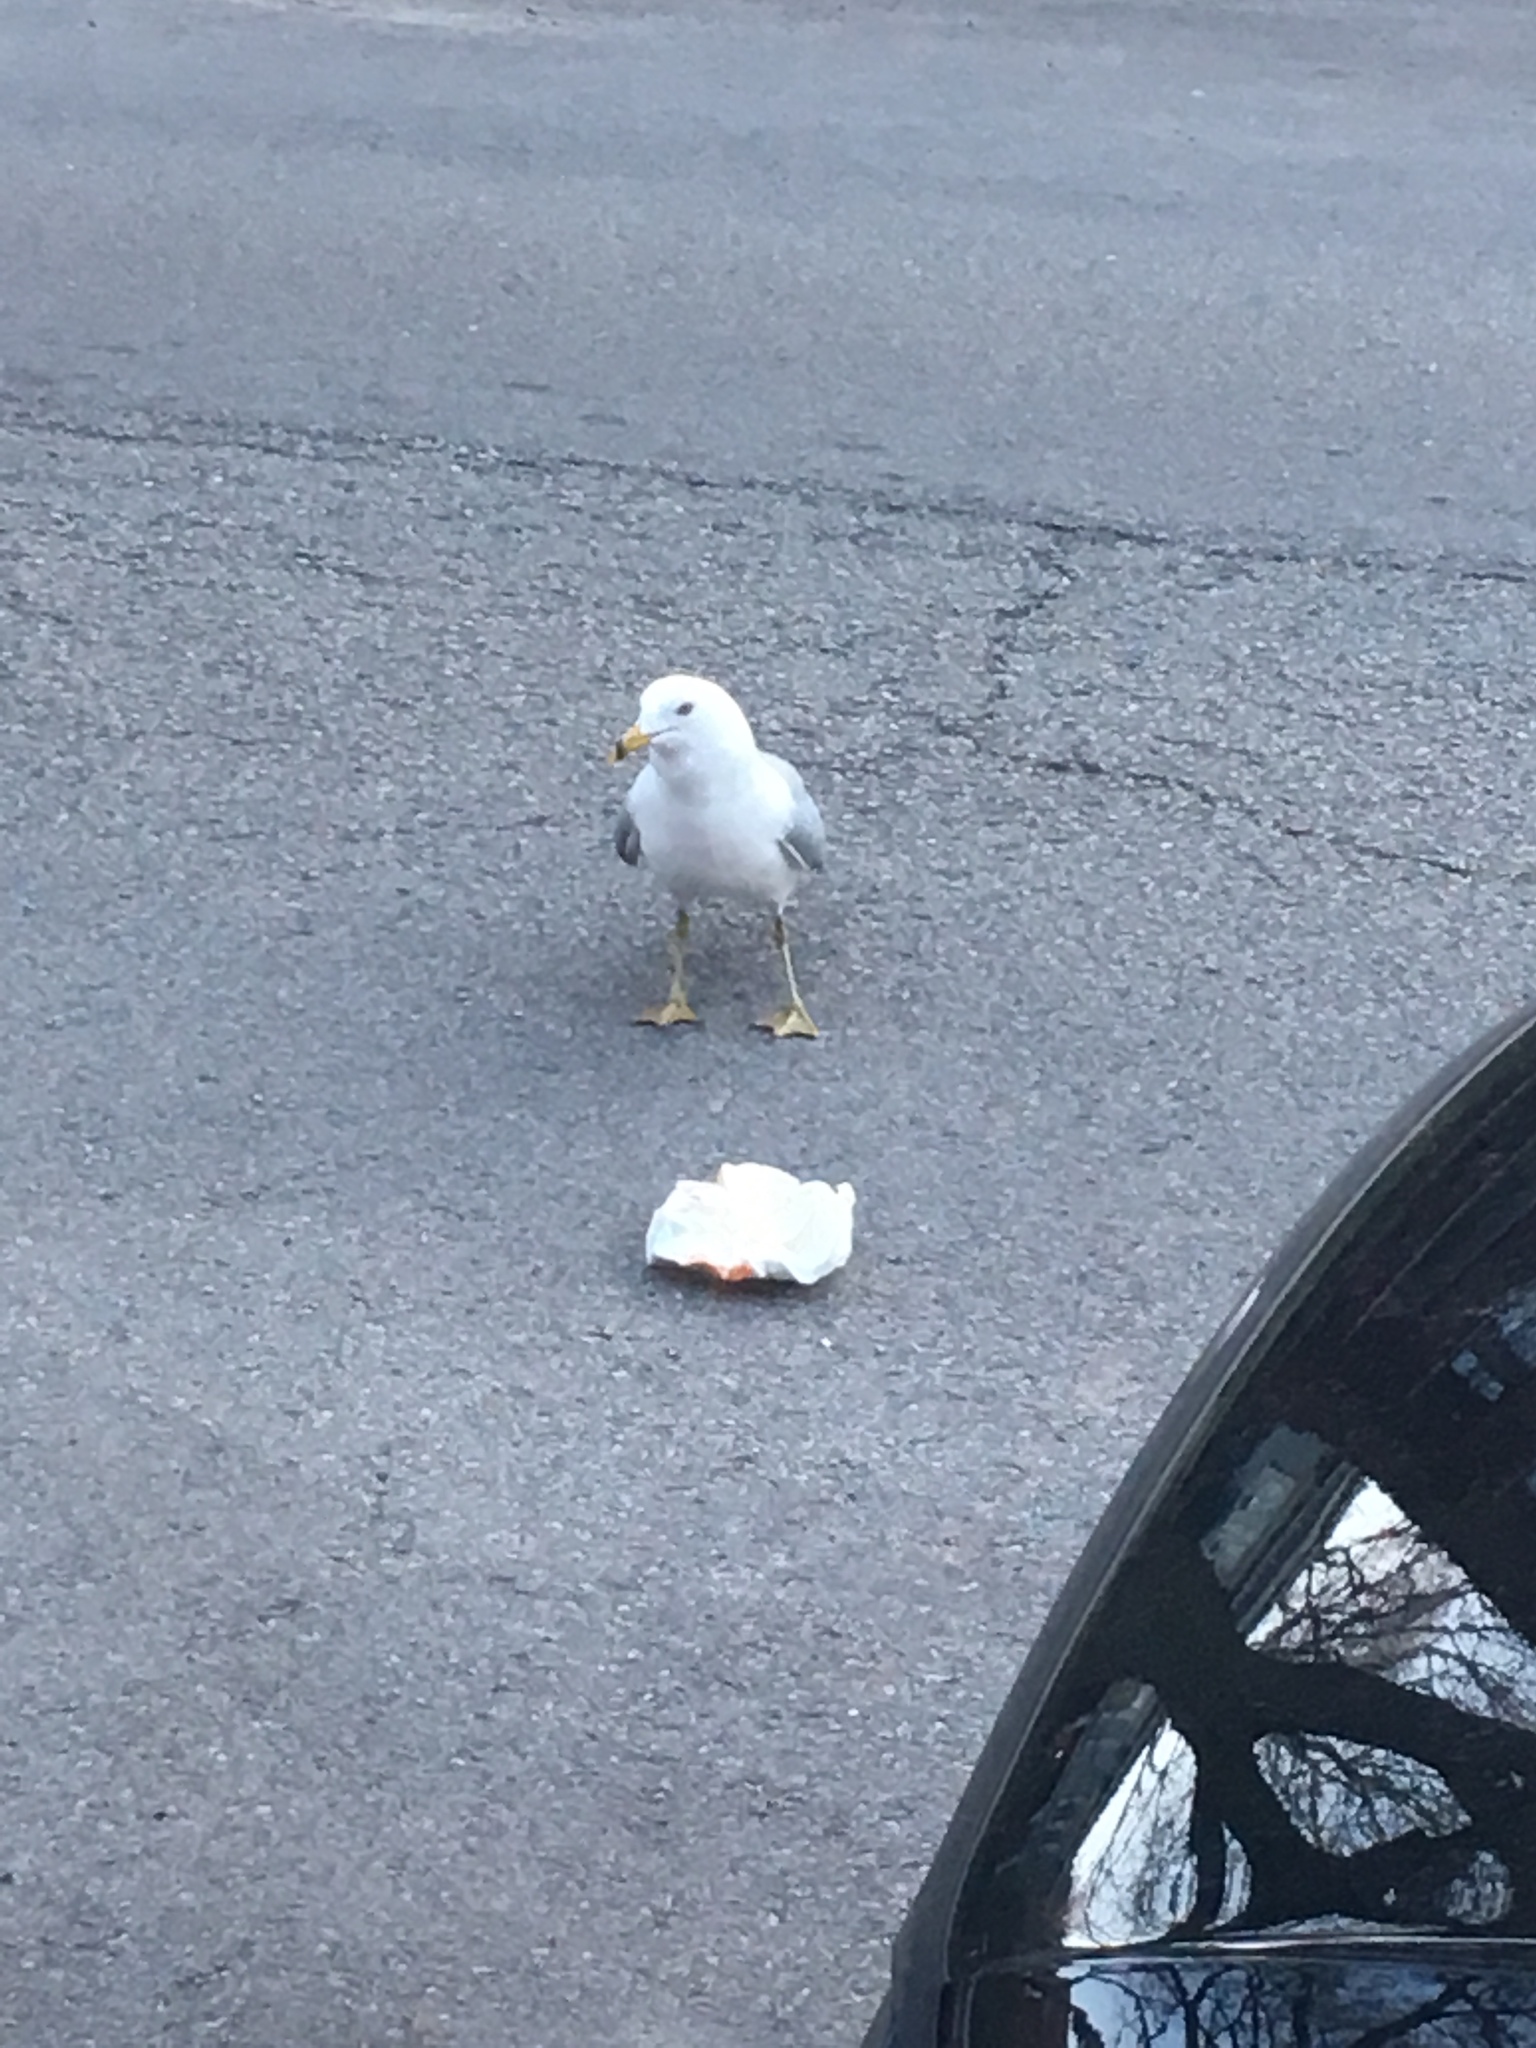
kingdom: Animalia
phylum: Chordata
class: Aves
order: Charadriiformes
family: Laridae
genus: Larus
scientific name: Larus delawarensis
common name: Ring-billed gull
